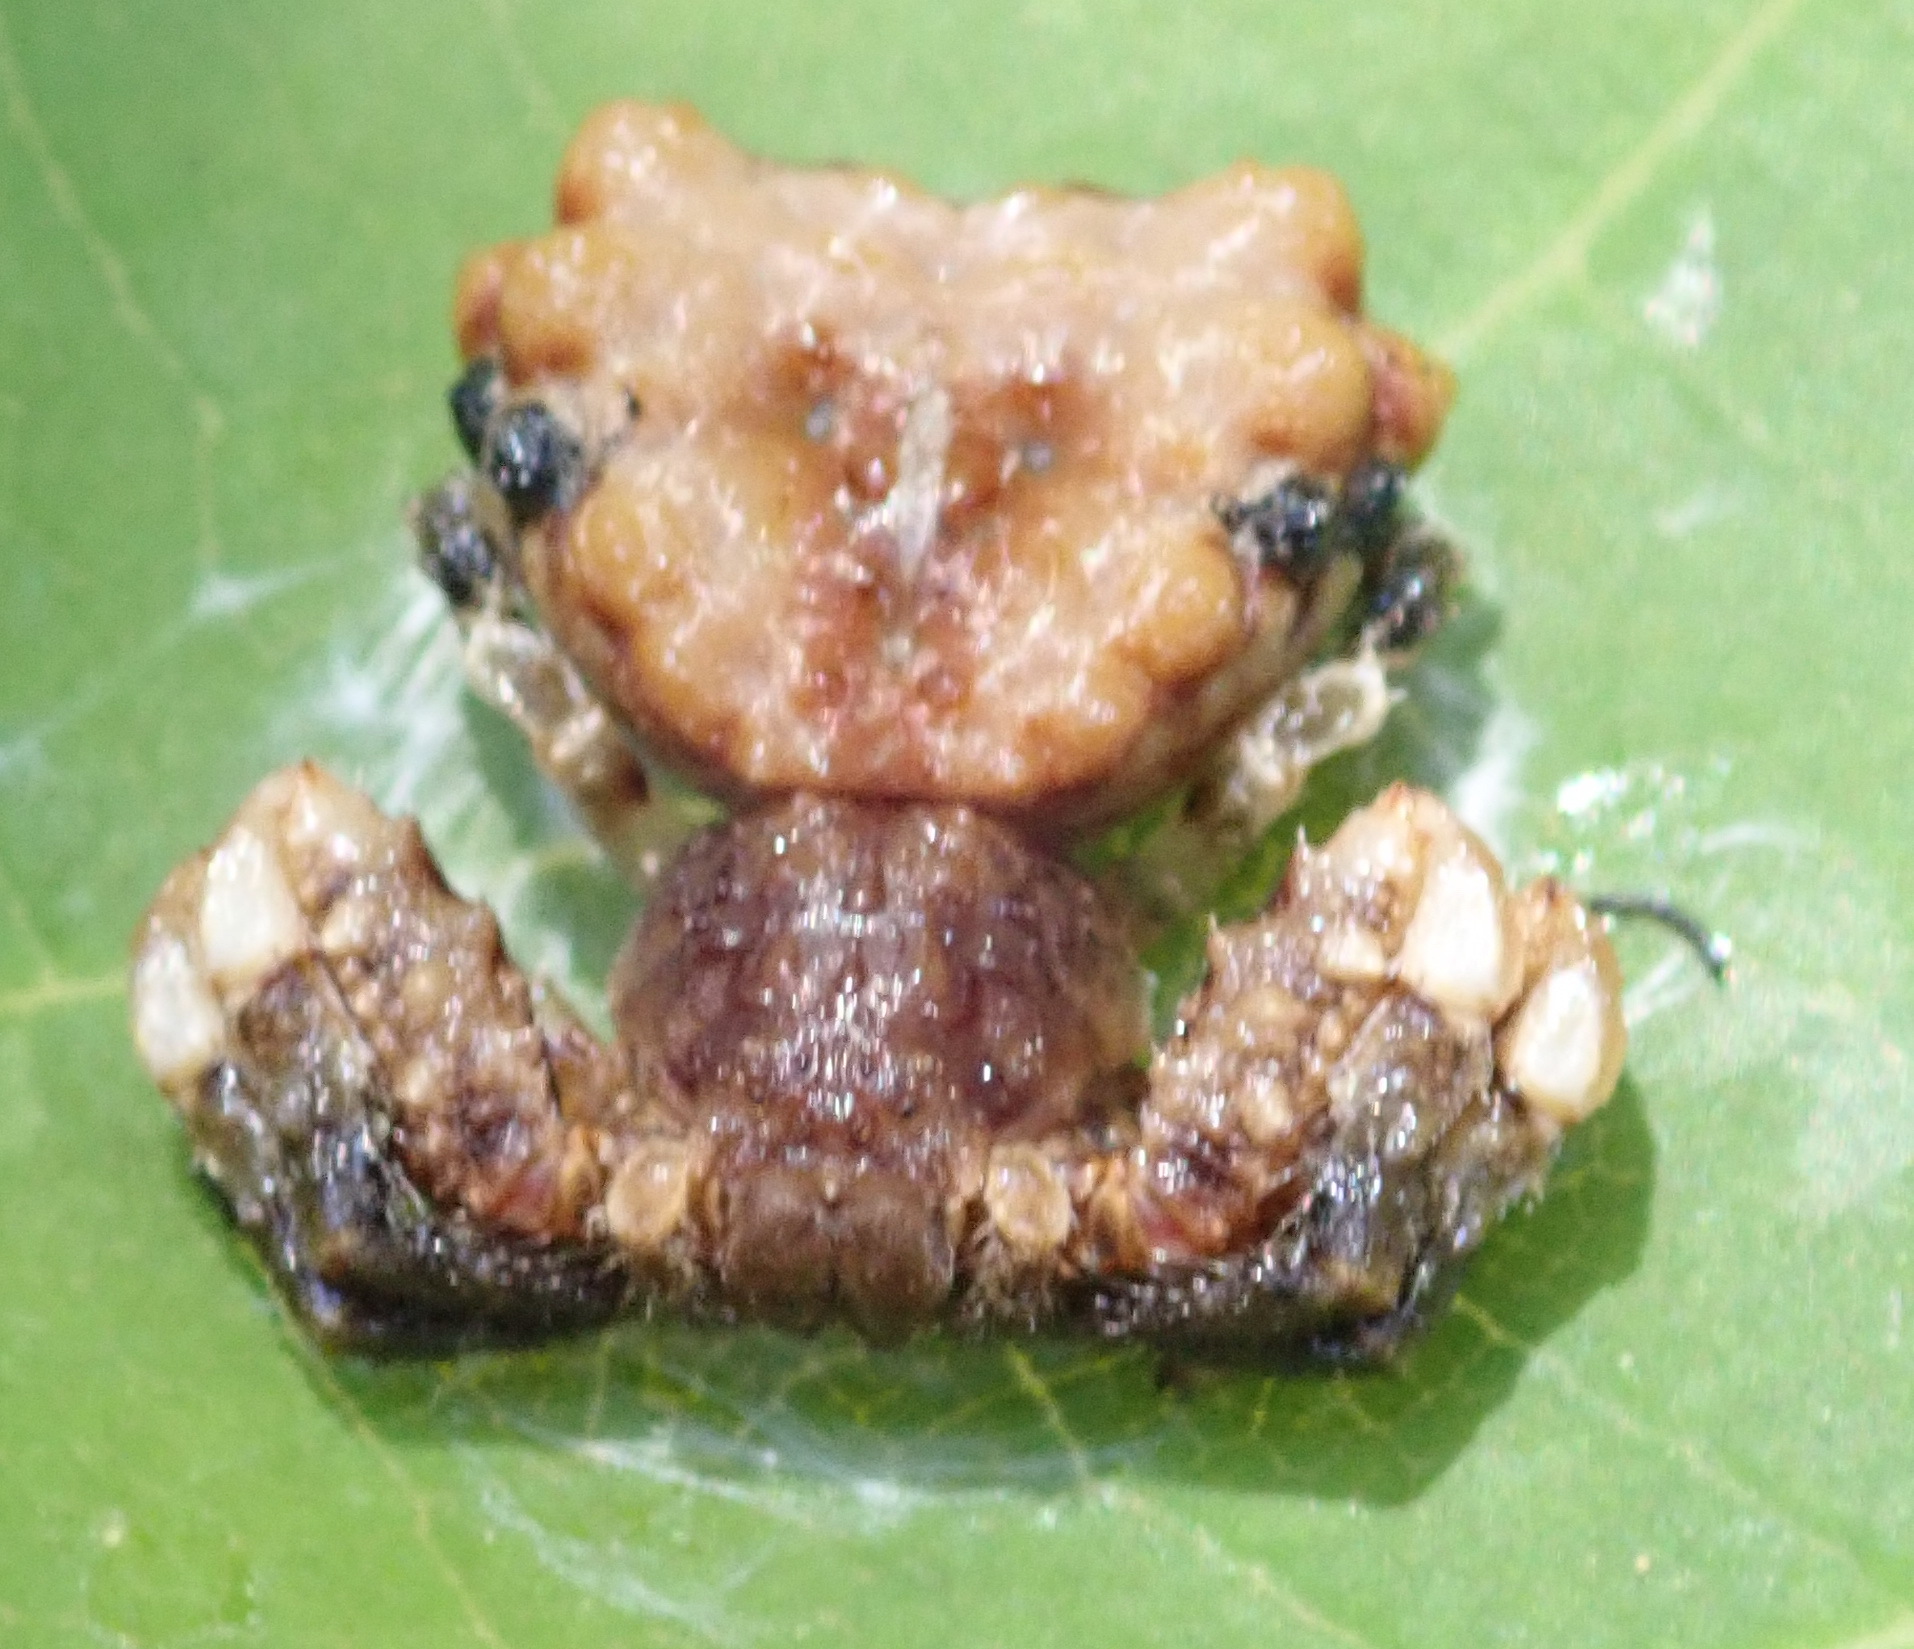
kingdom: Animalia
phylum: Arthropoda
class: Arachnida
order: Araneae
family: Thomisidae
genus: Phrynarachne
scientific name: Phrynarachne rugosa
